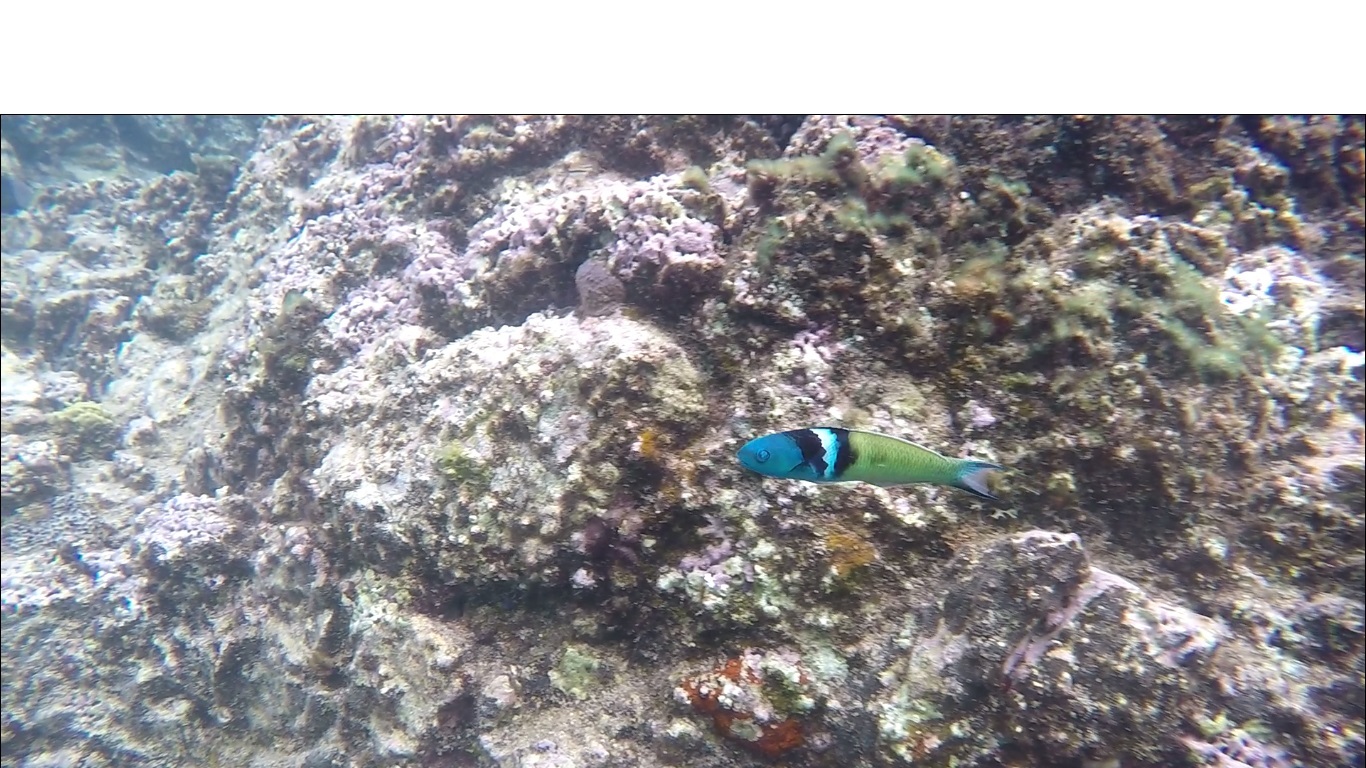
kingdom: Animalia
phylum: Chordata
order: Perciformes
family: Labridae
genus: Thalassoma
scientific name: Thalassoma bifasciatum
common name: Bluehead wrasse
